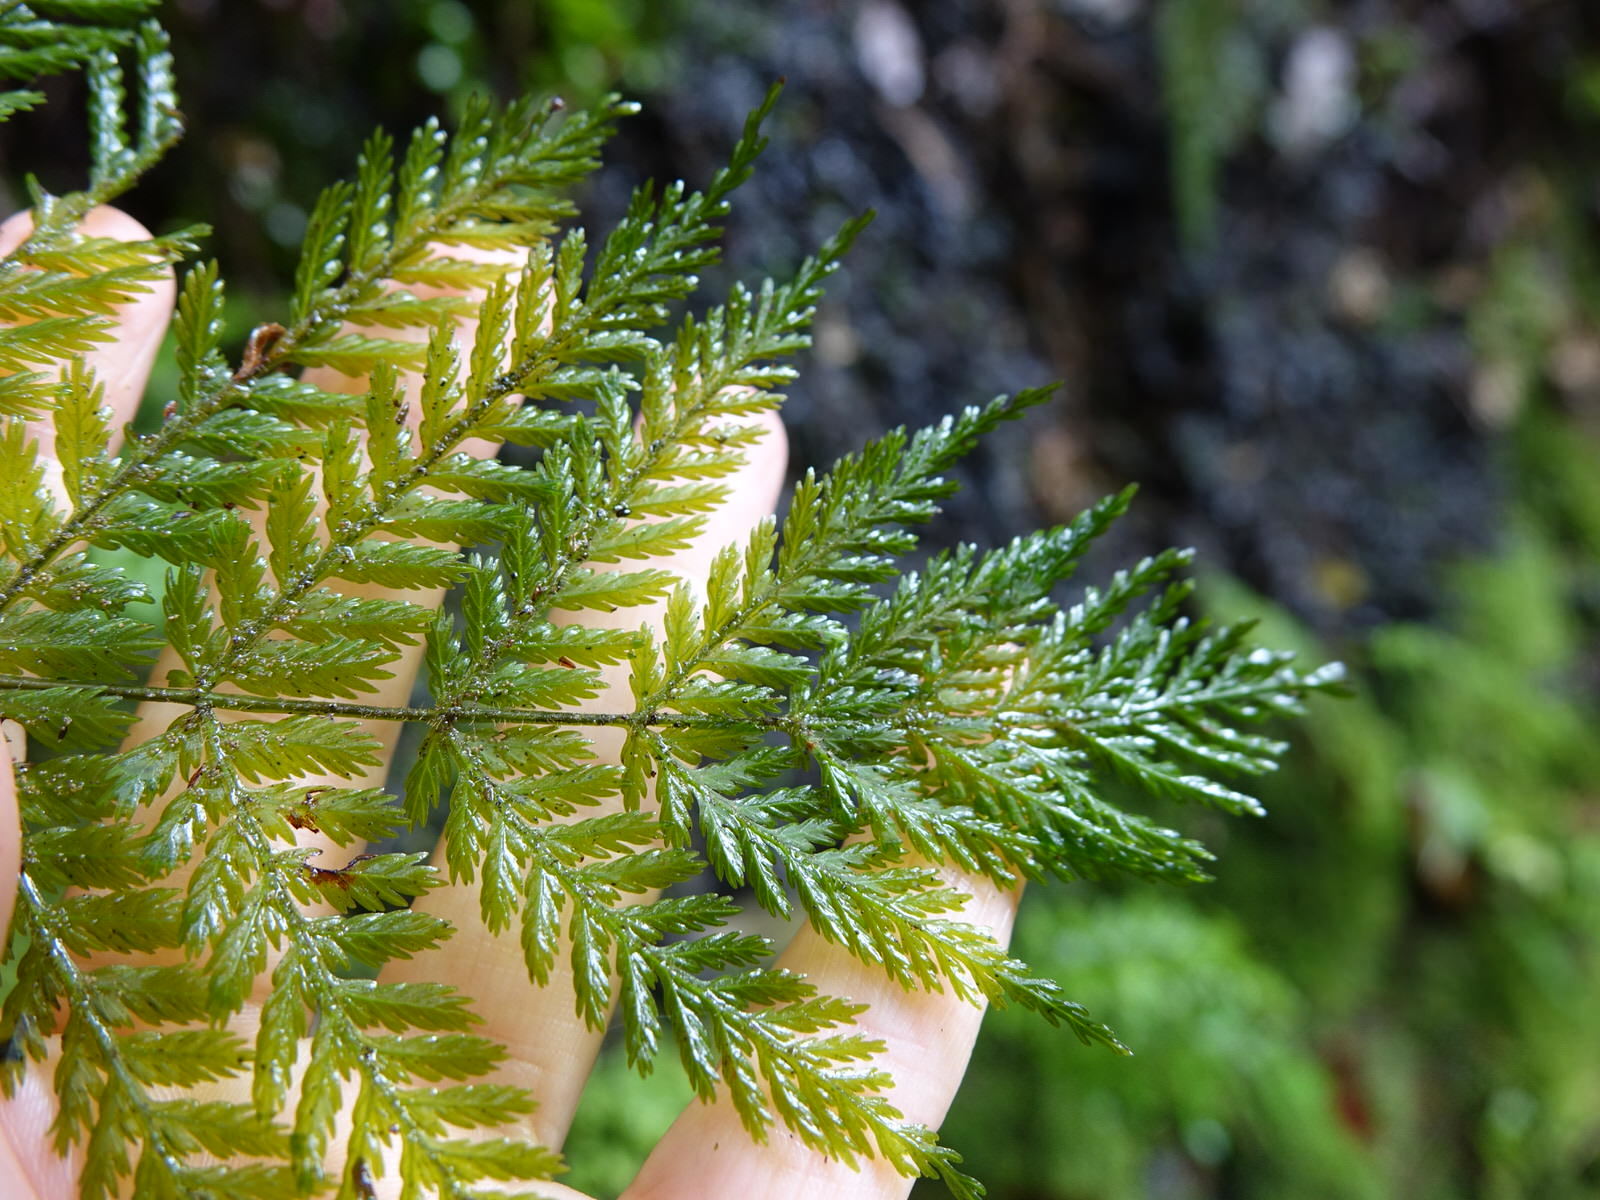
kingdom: Plantae
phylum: Tracheophyta
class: Polypodiopsida
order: Osmundales
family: Osmundaceae
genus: Leptopteris
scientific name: Leptopteris hymenophylloides
